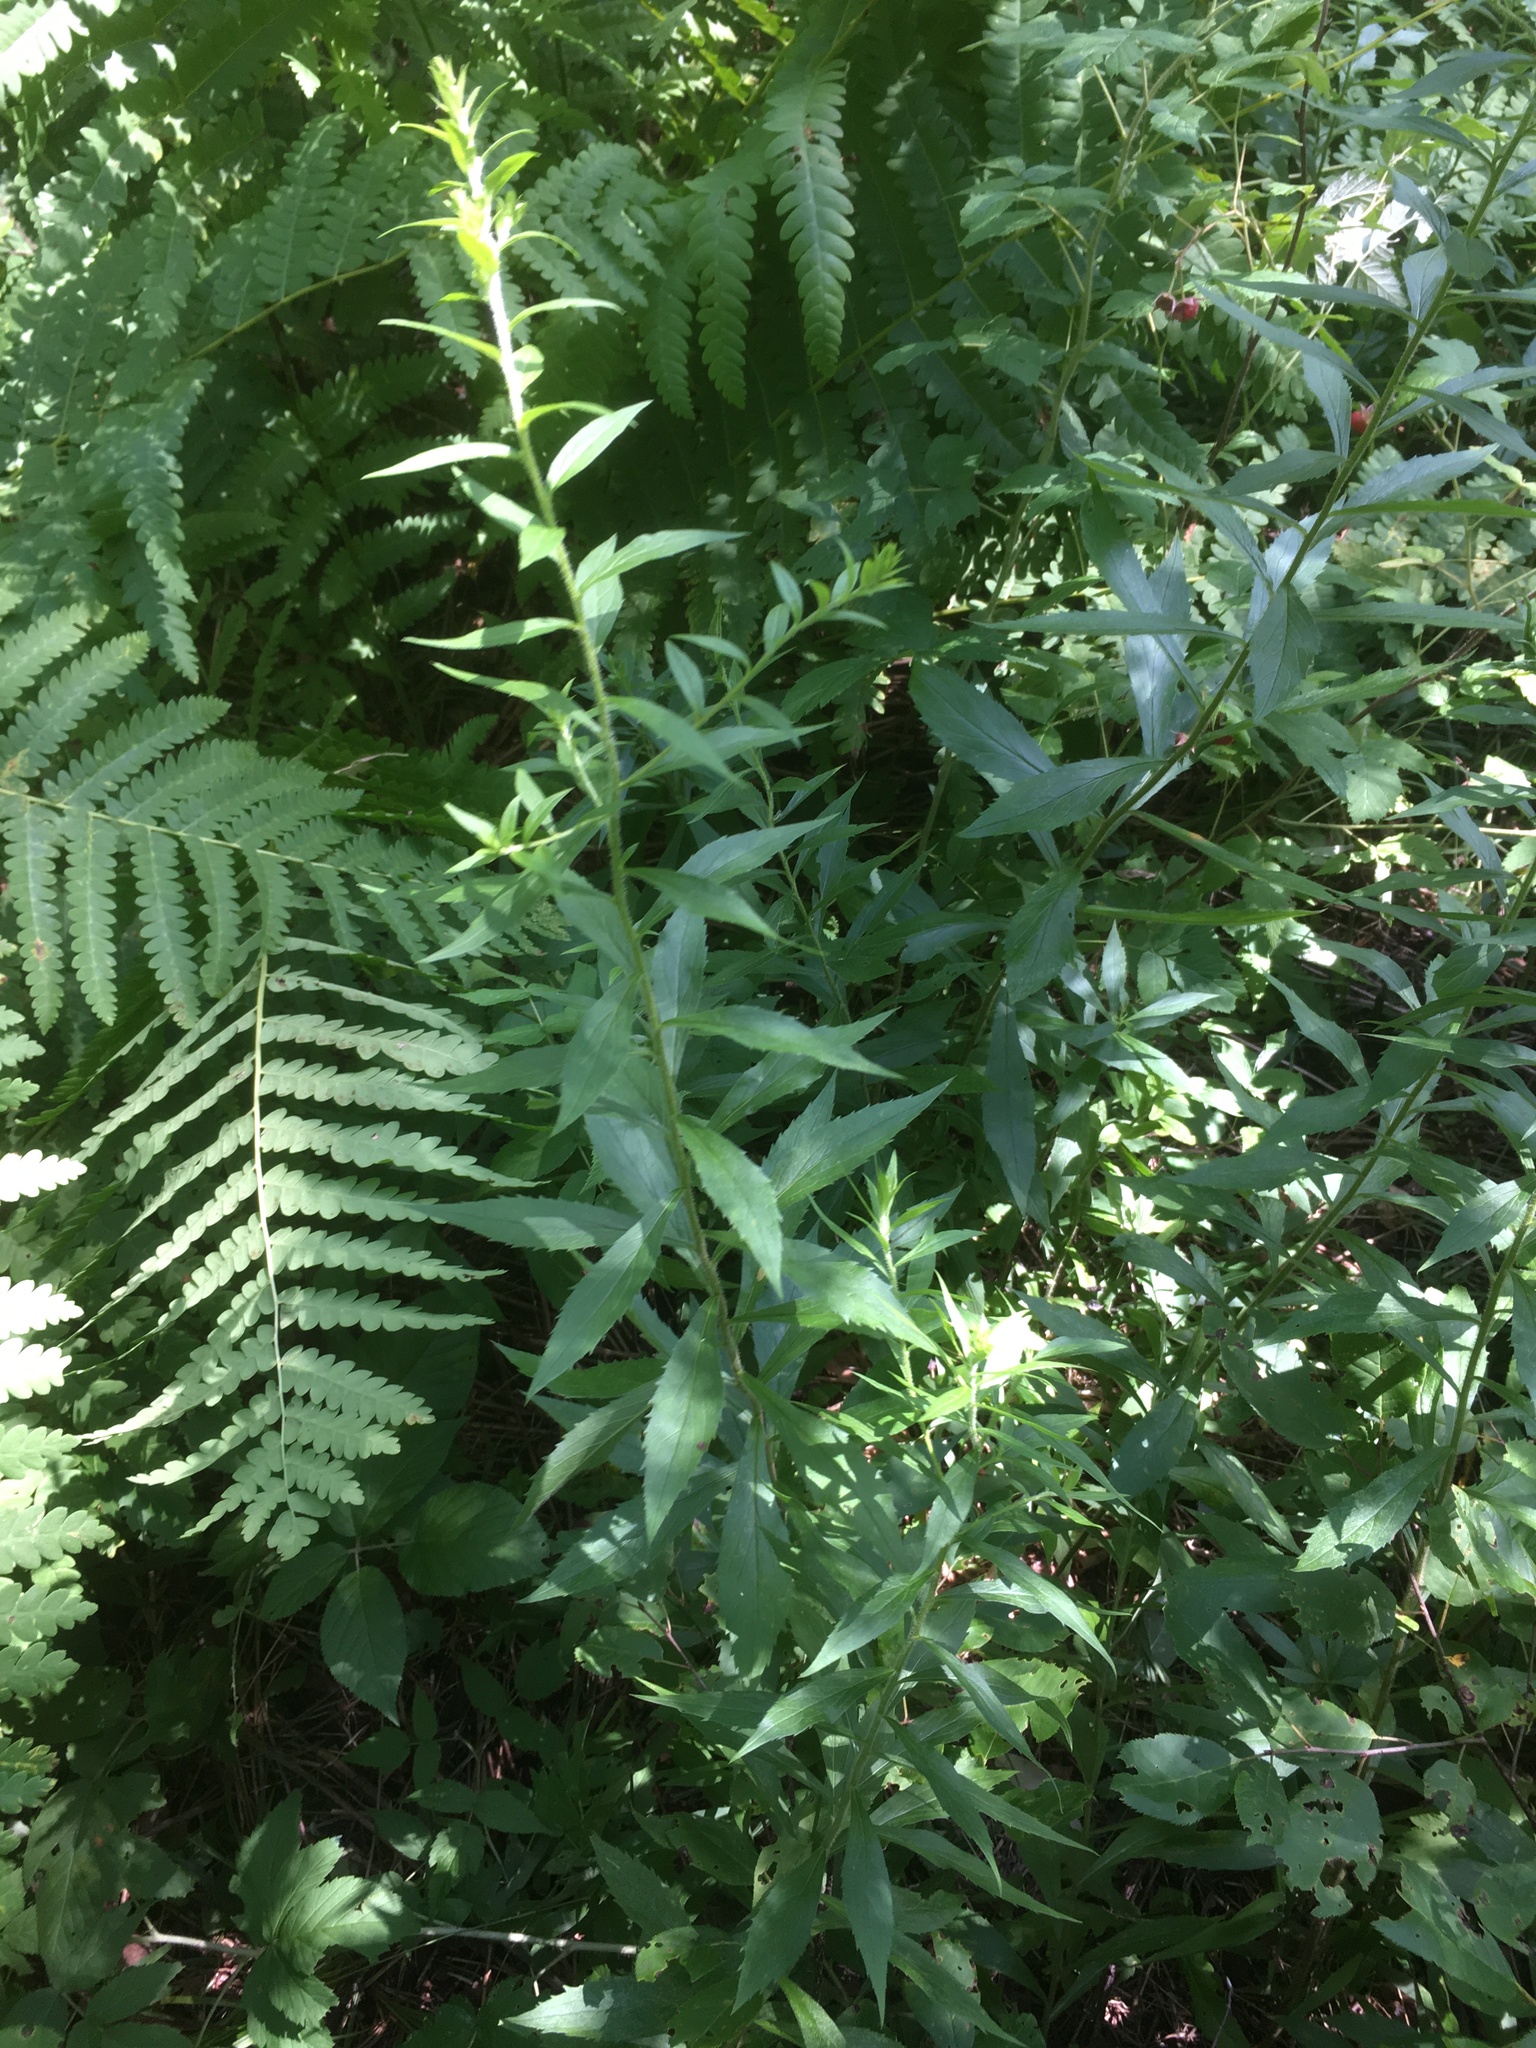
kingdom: Plantae
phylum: Tracheophyta
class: Magnoliopsida
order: Asterales
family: Asteraceae
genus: Solidago
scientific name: Solidago rugosa
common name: Rough-stemmed goldenrod
